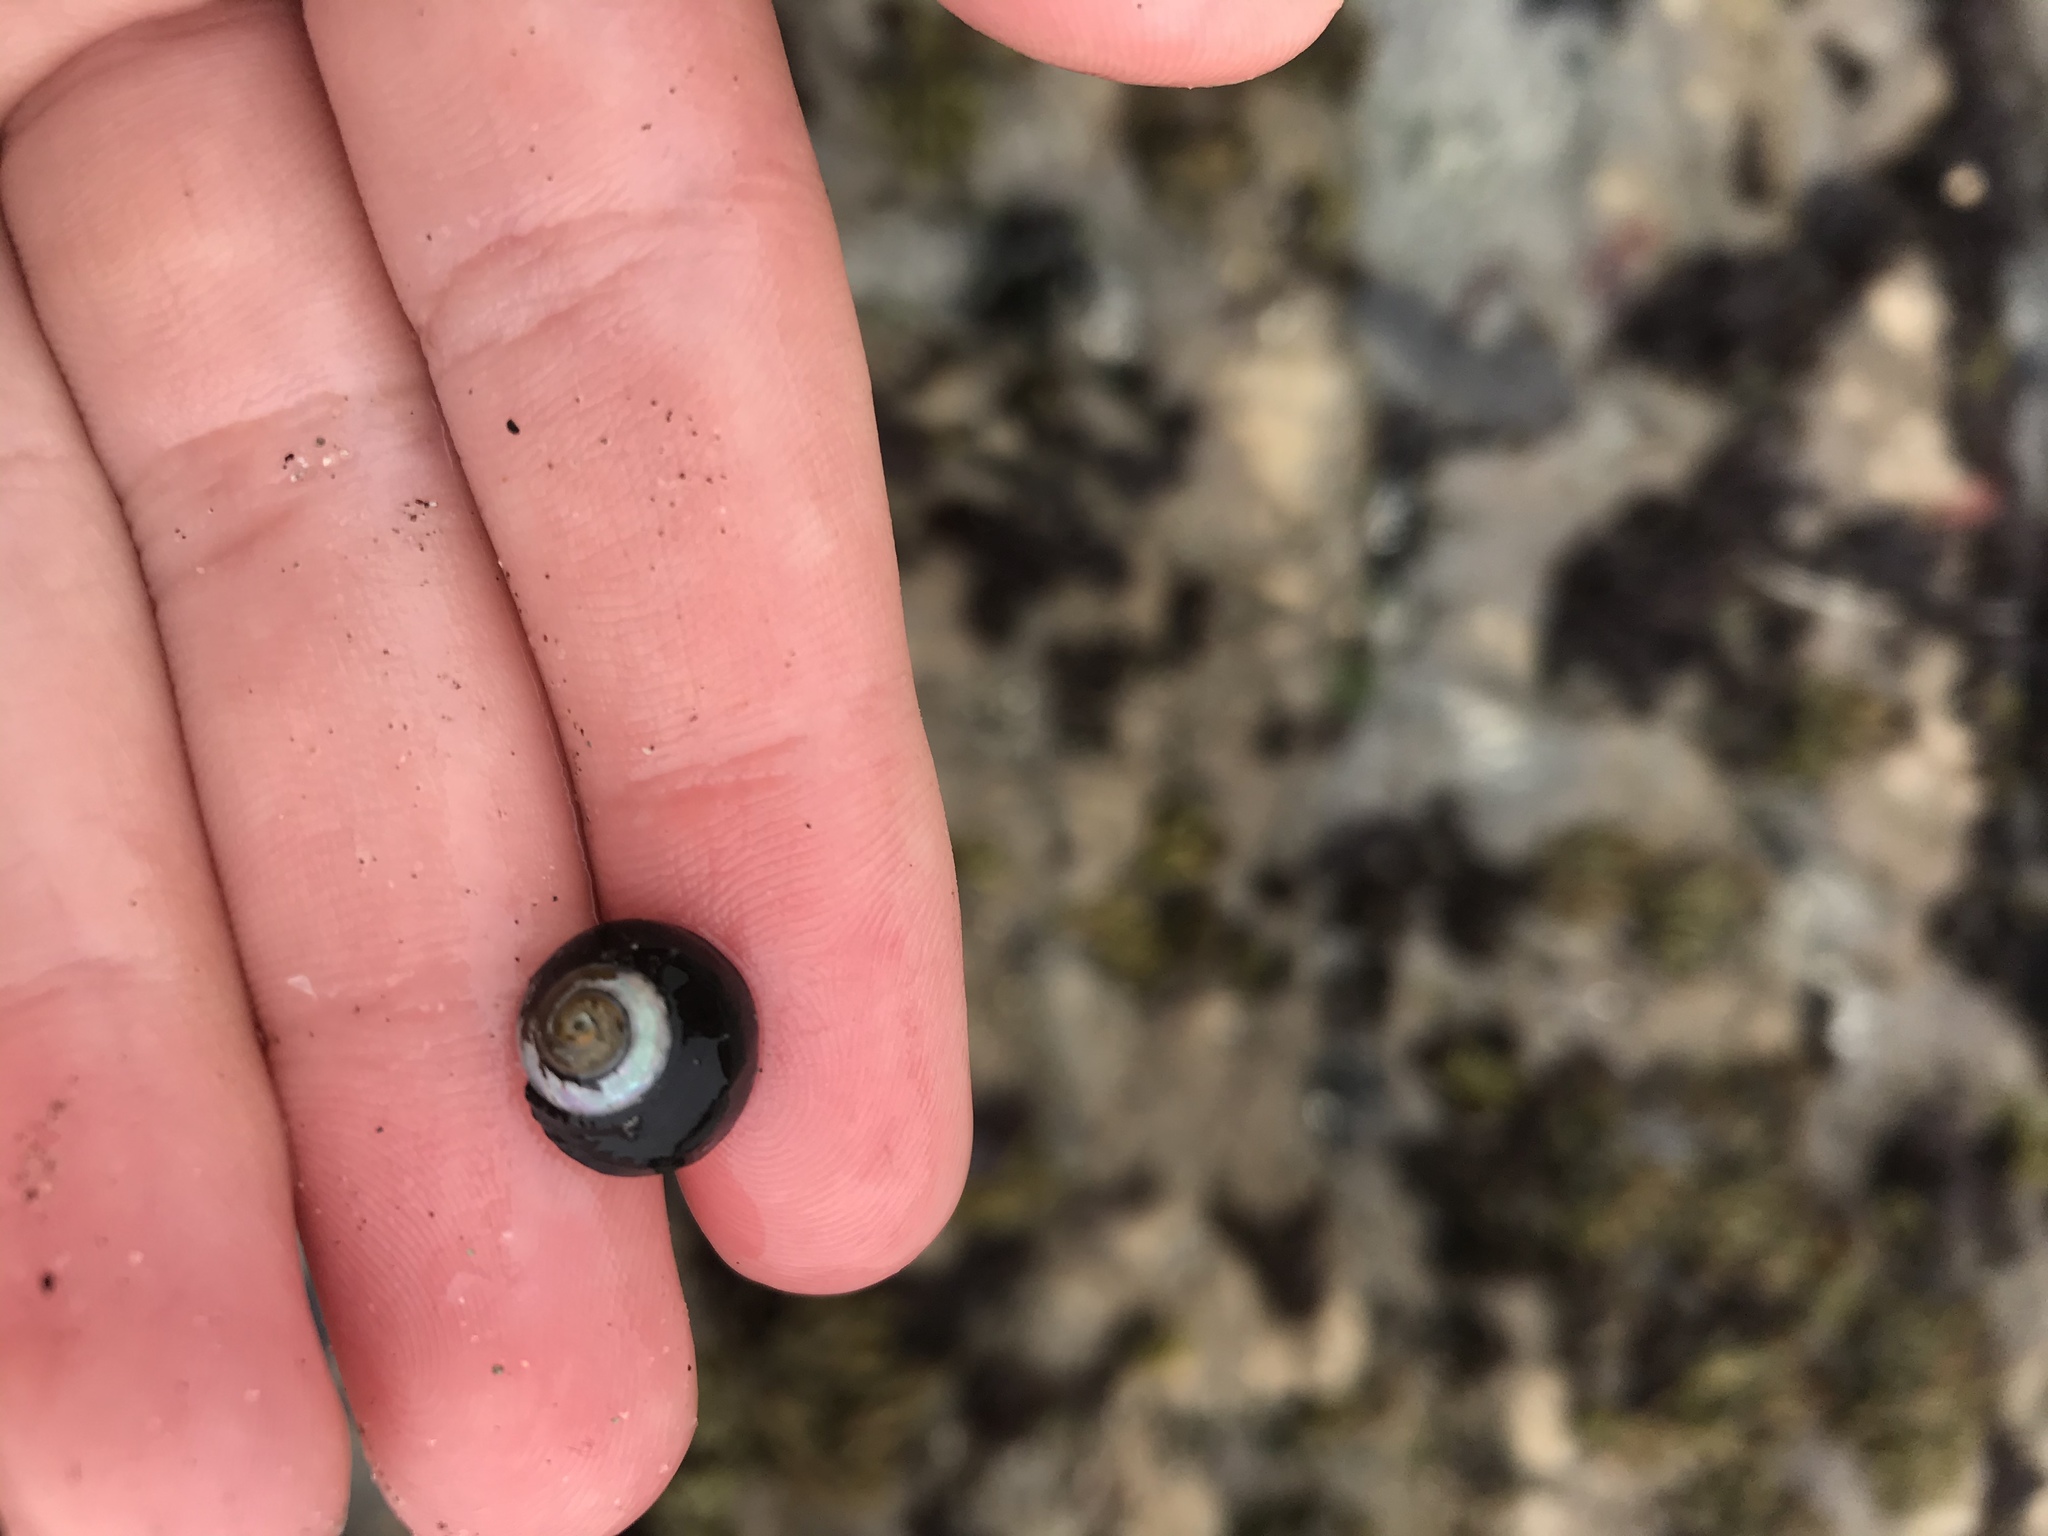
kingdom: Animalia
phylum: Mollusca
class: Gastropoda
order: Trochida
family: Tegulidae
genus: Tegula
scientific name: Tegula funebralis
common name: Black tegula
